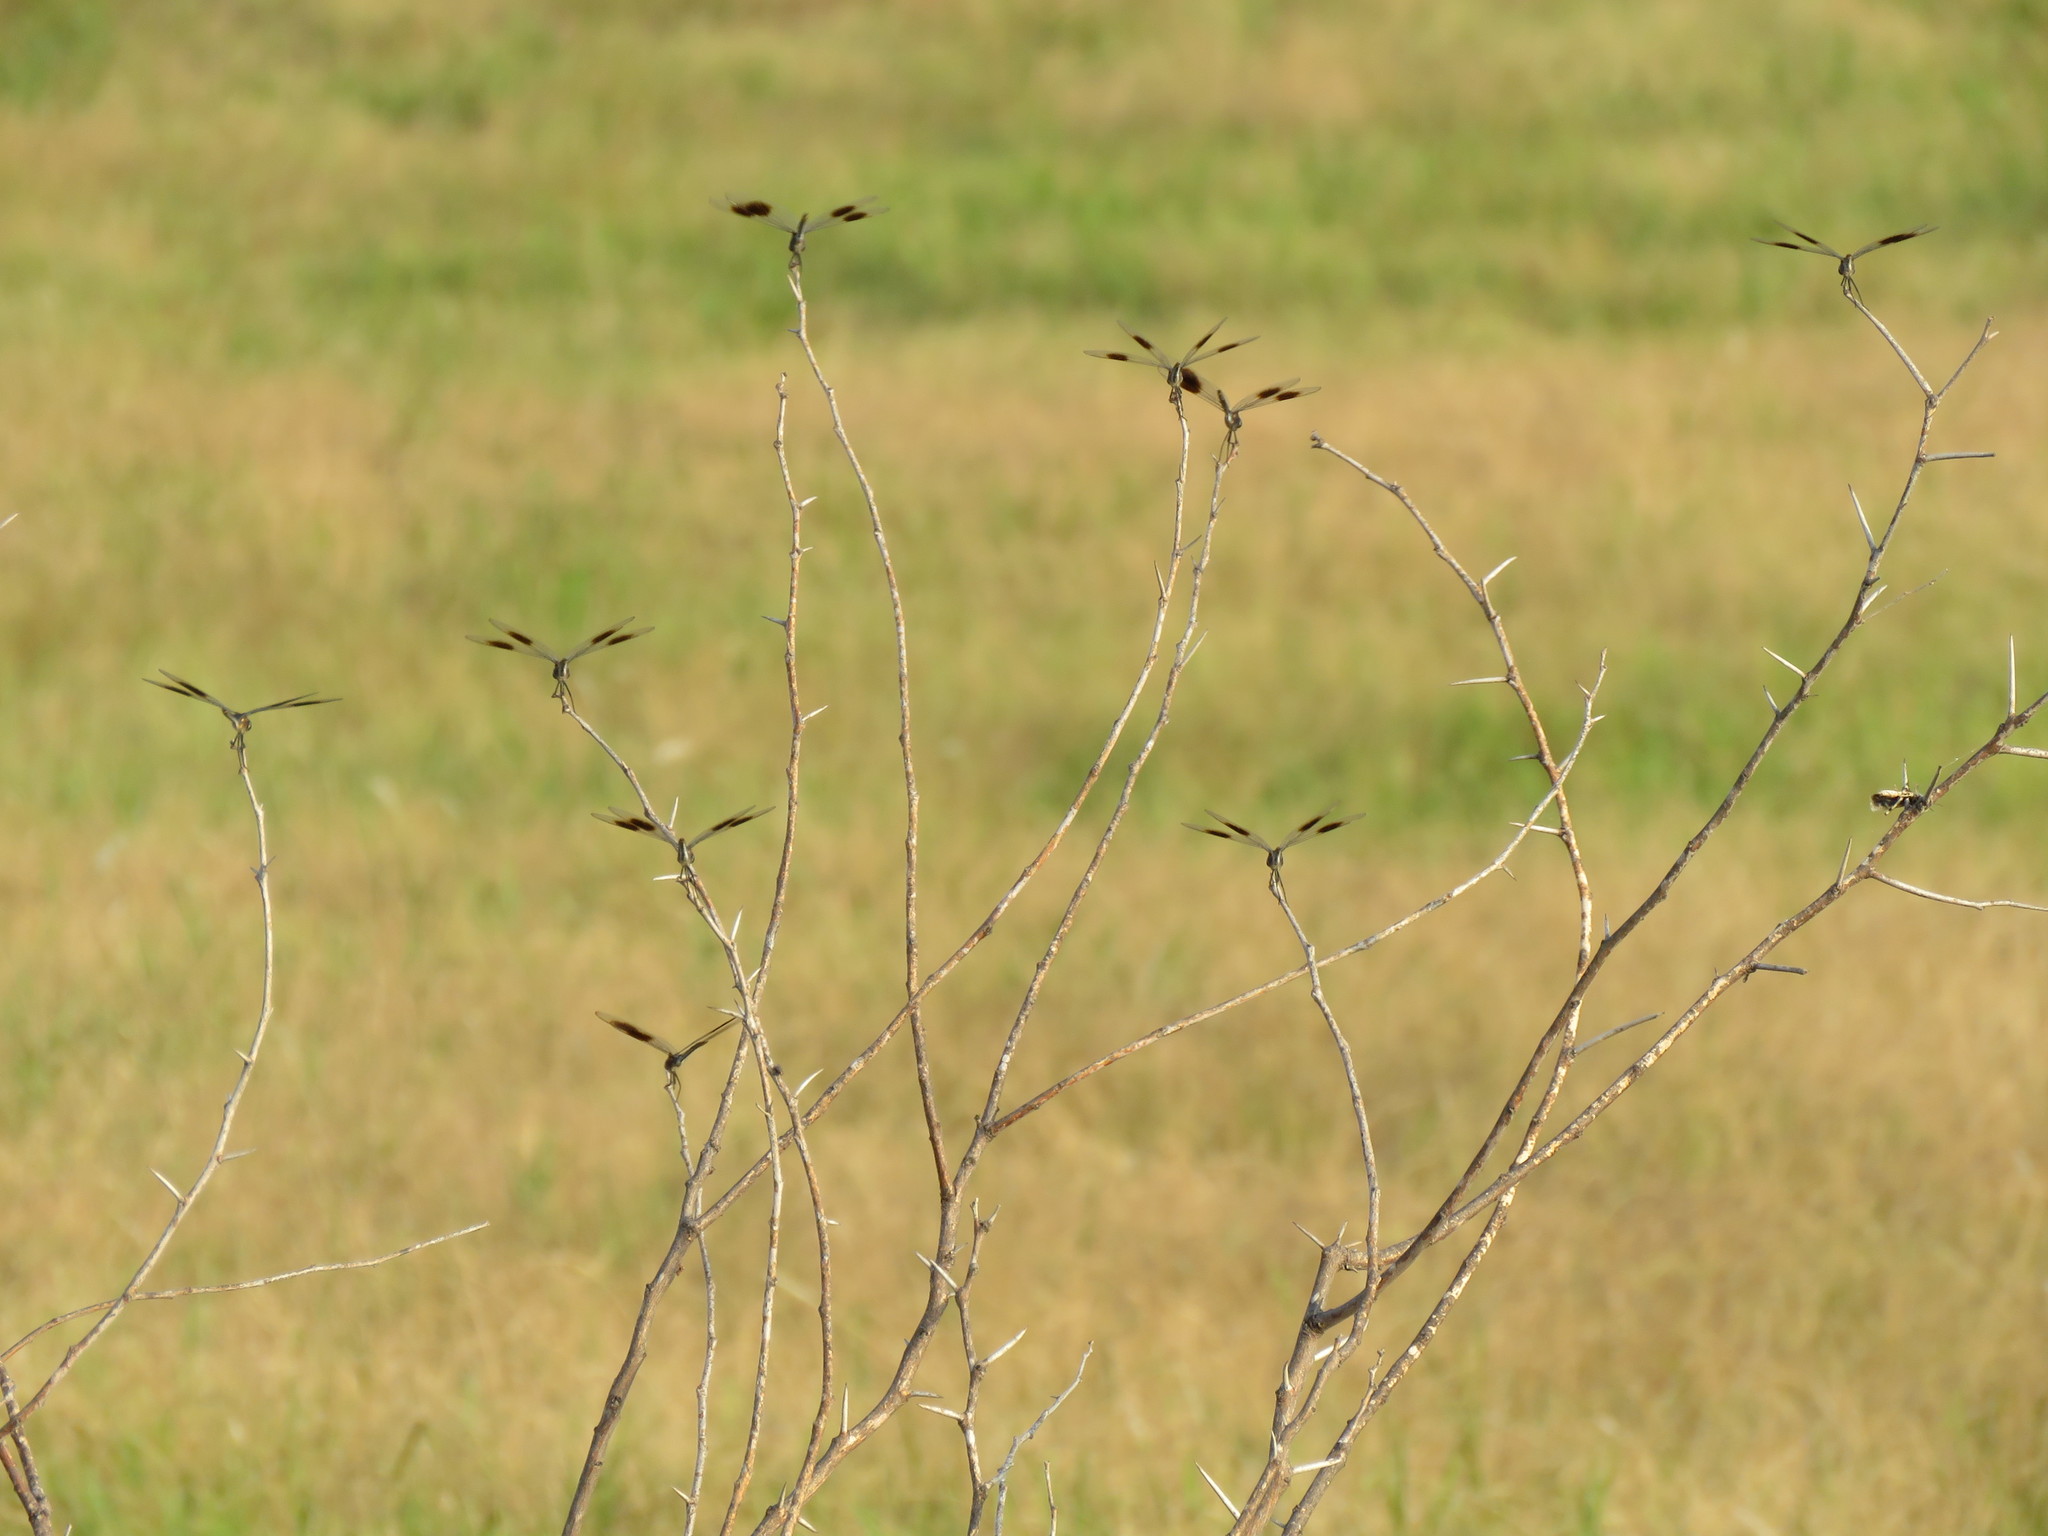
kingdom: Animalia
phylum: Arthropoda
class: Insecta
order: Odonata
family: Libellulidae
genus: Brachymesia
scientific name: Brachymesia gravida
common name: Four-spotted pennant
